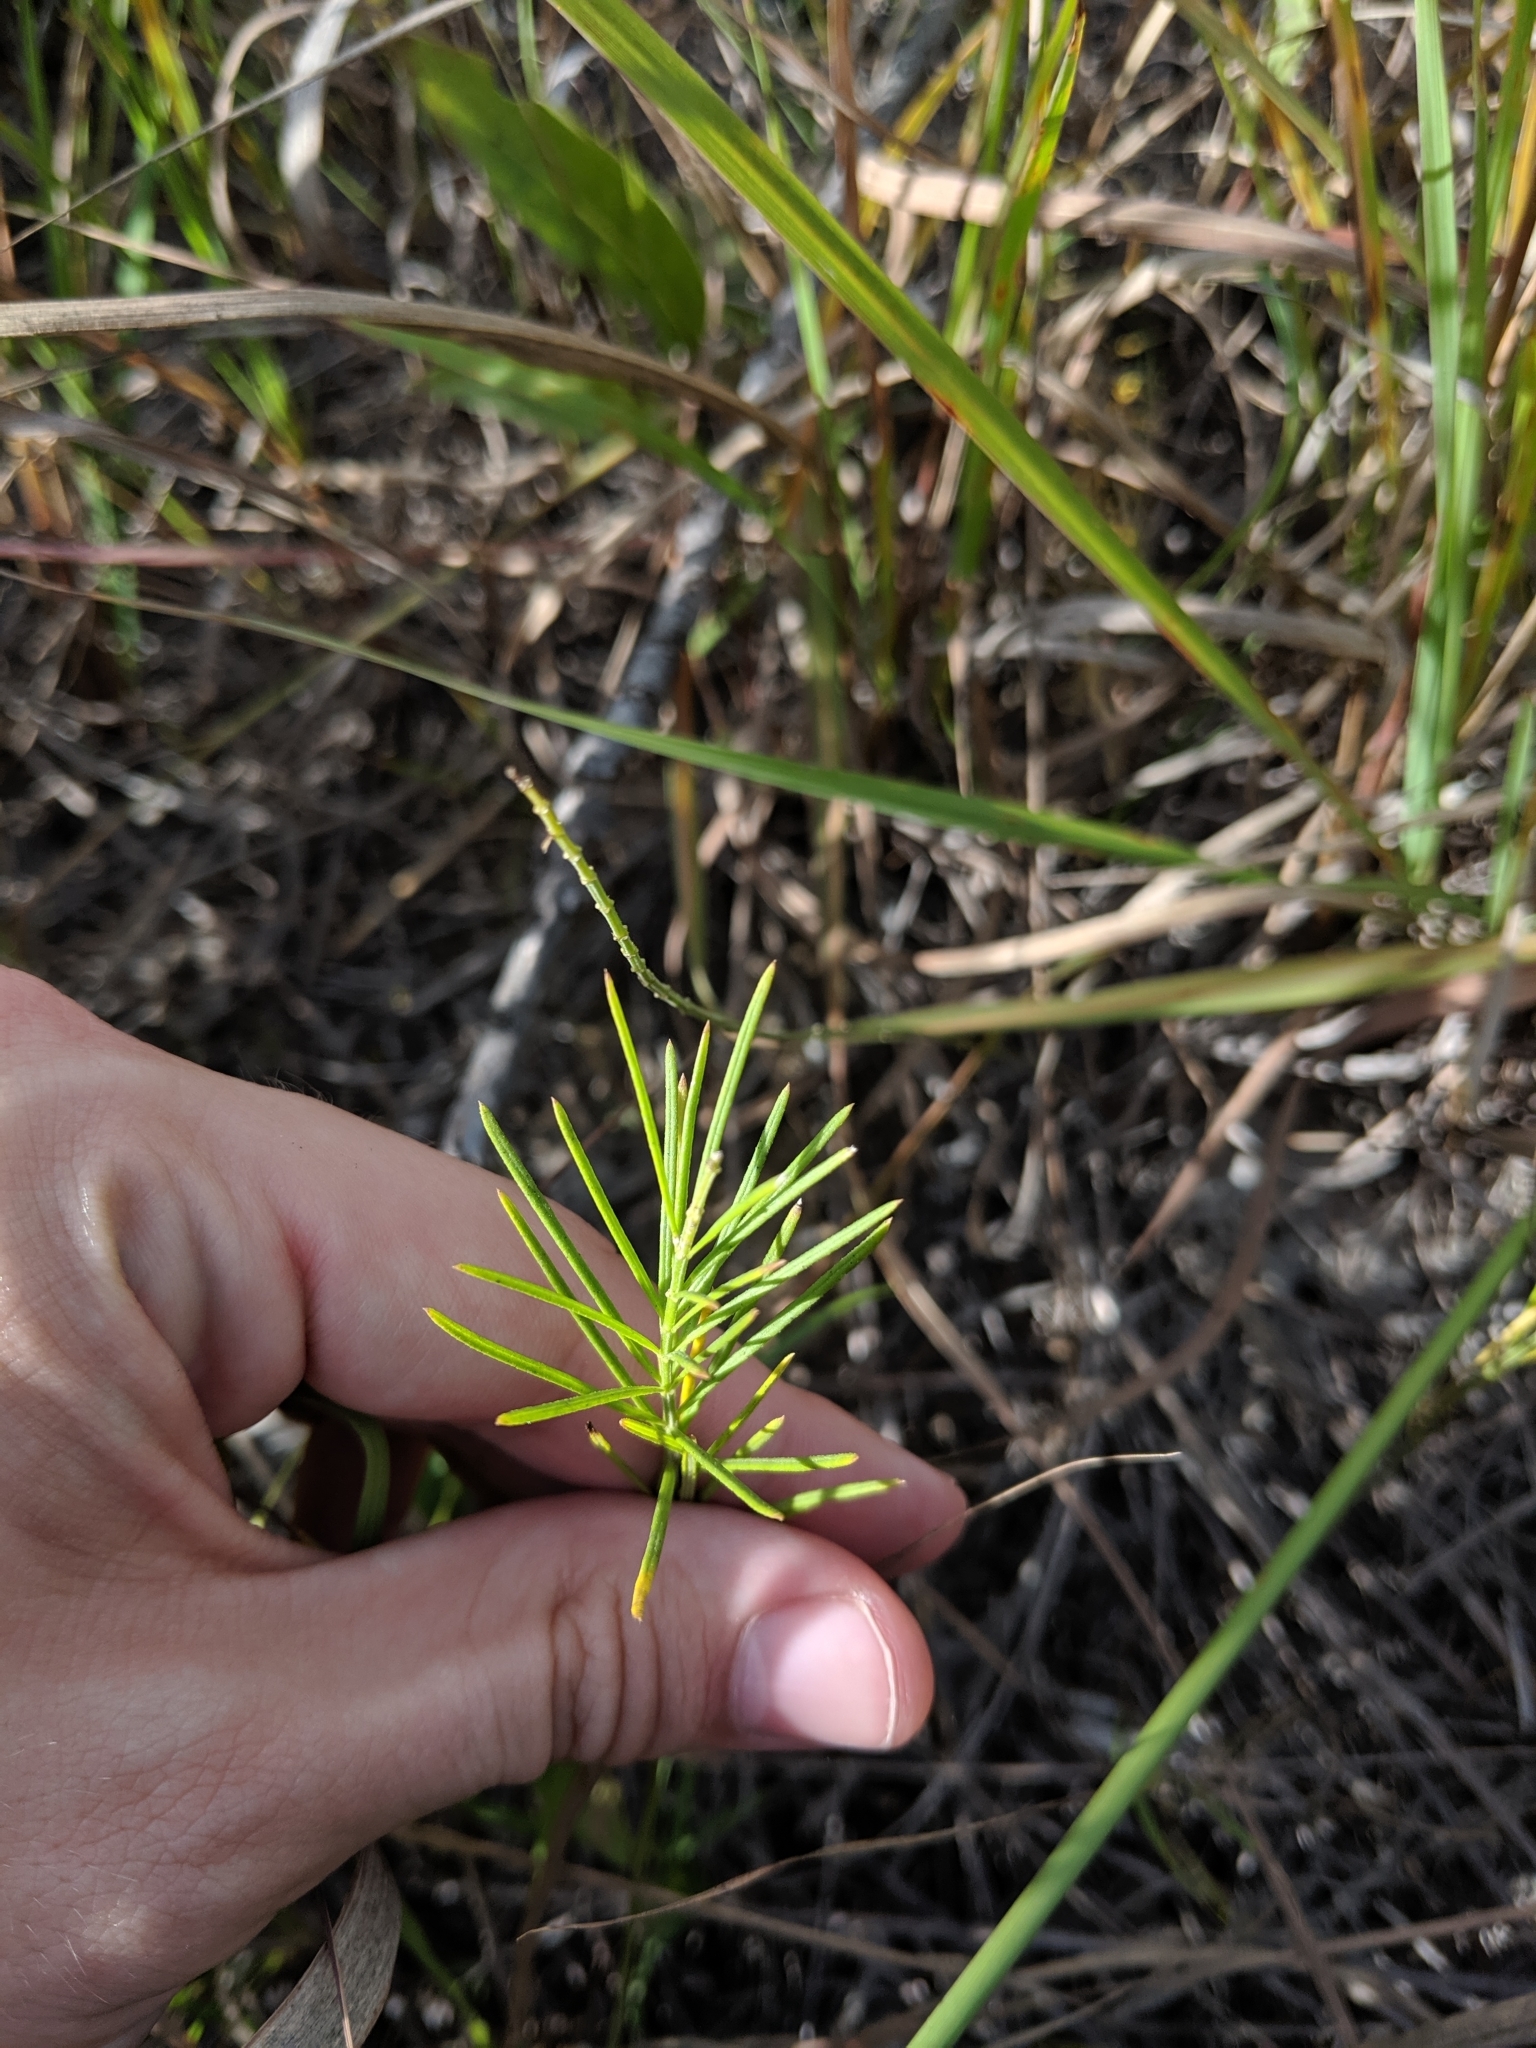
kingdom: Plantae
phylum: Tracheophyta
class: Magnoliopsida
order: Gentianales
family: Apocynaceae
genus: Asclepias
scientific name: Asclepias verticillata
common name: Eastern whorled milkweed
